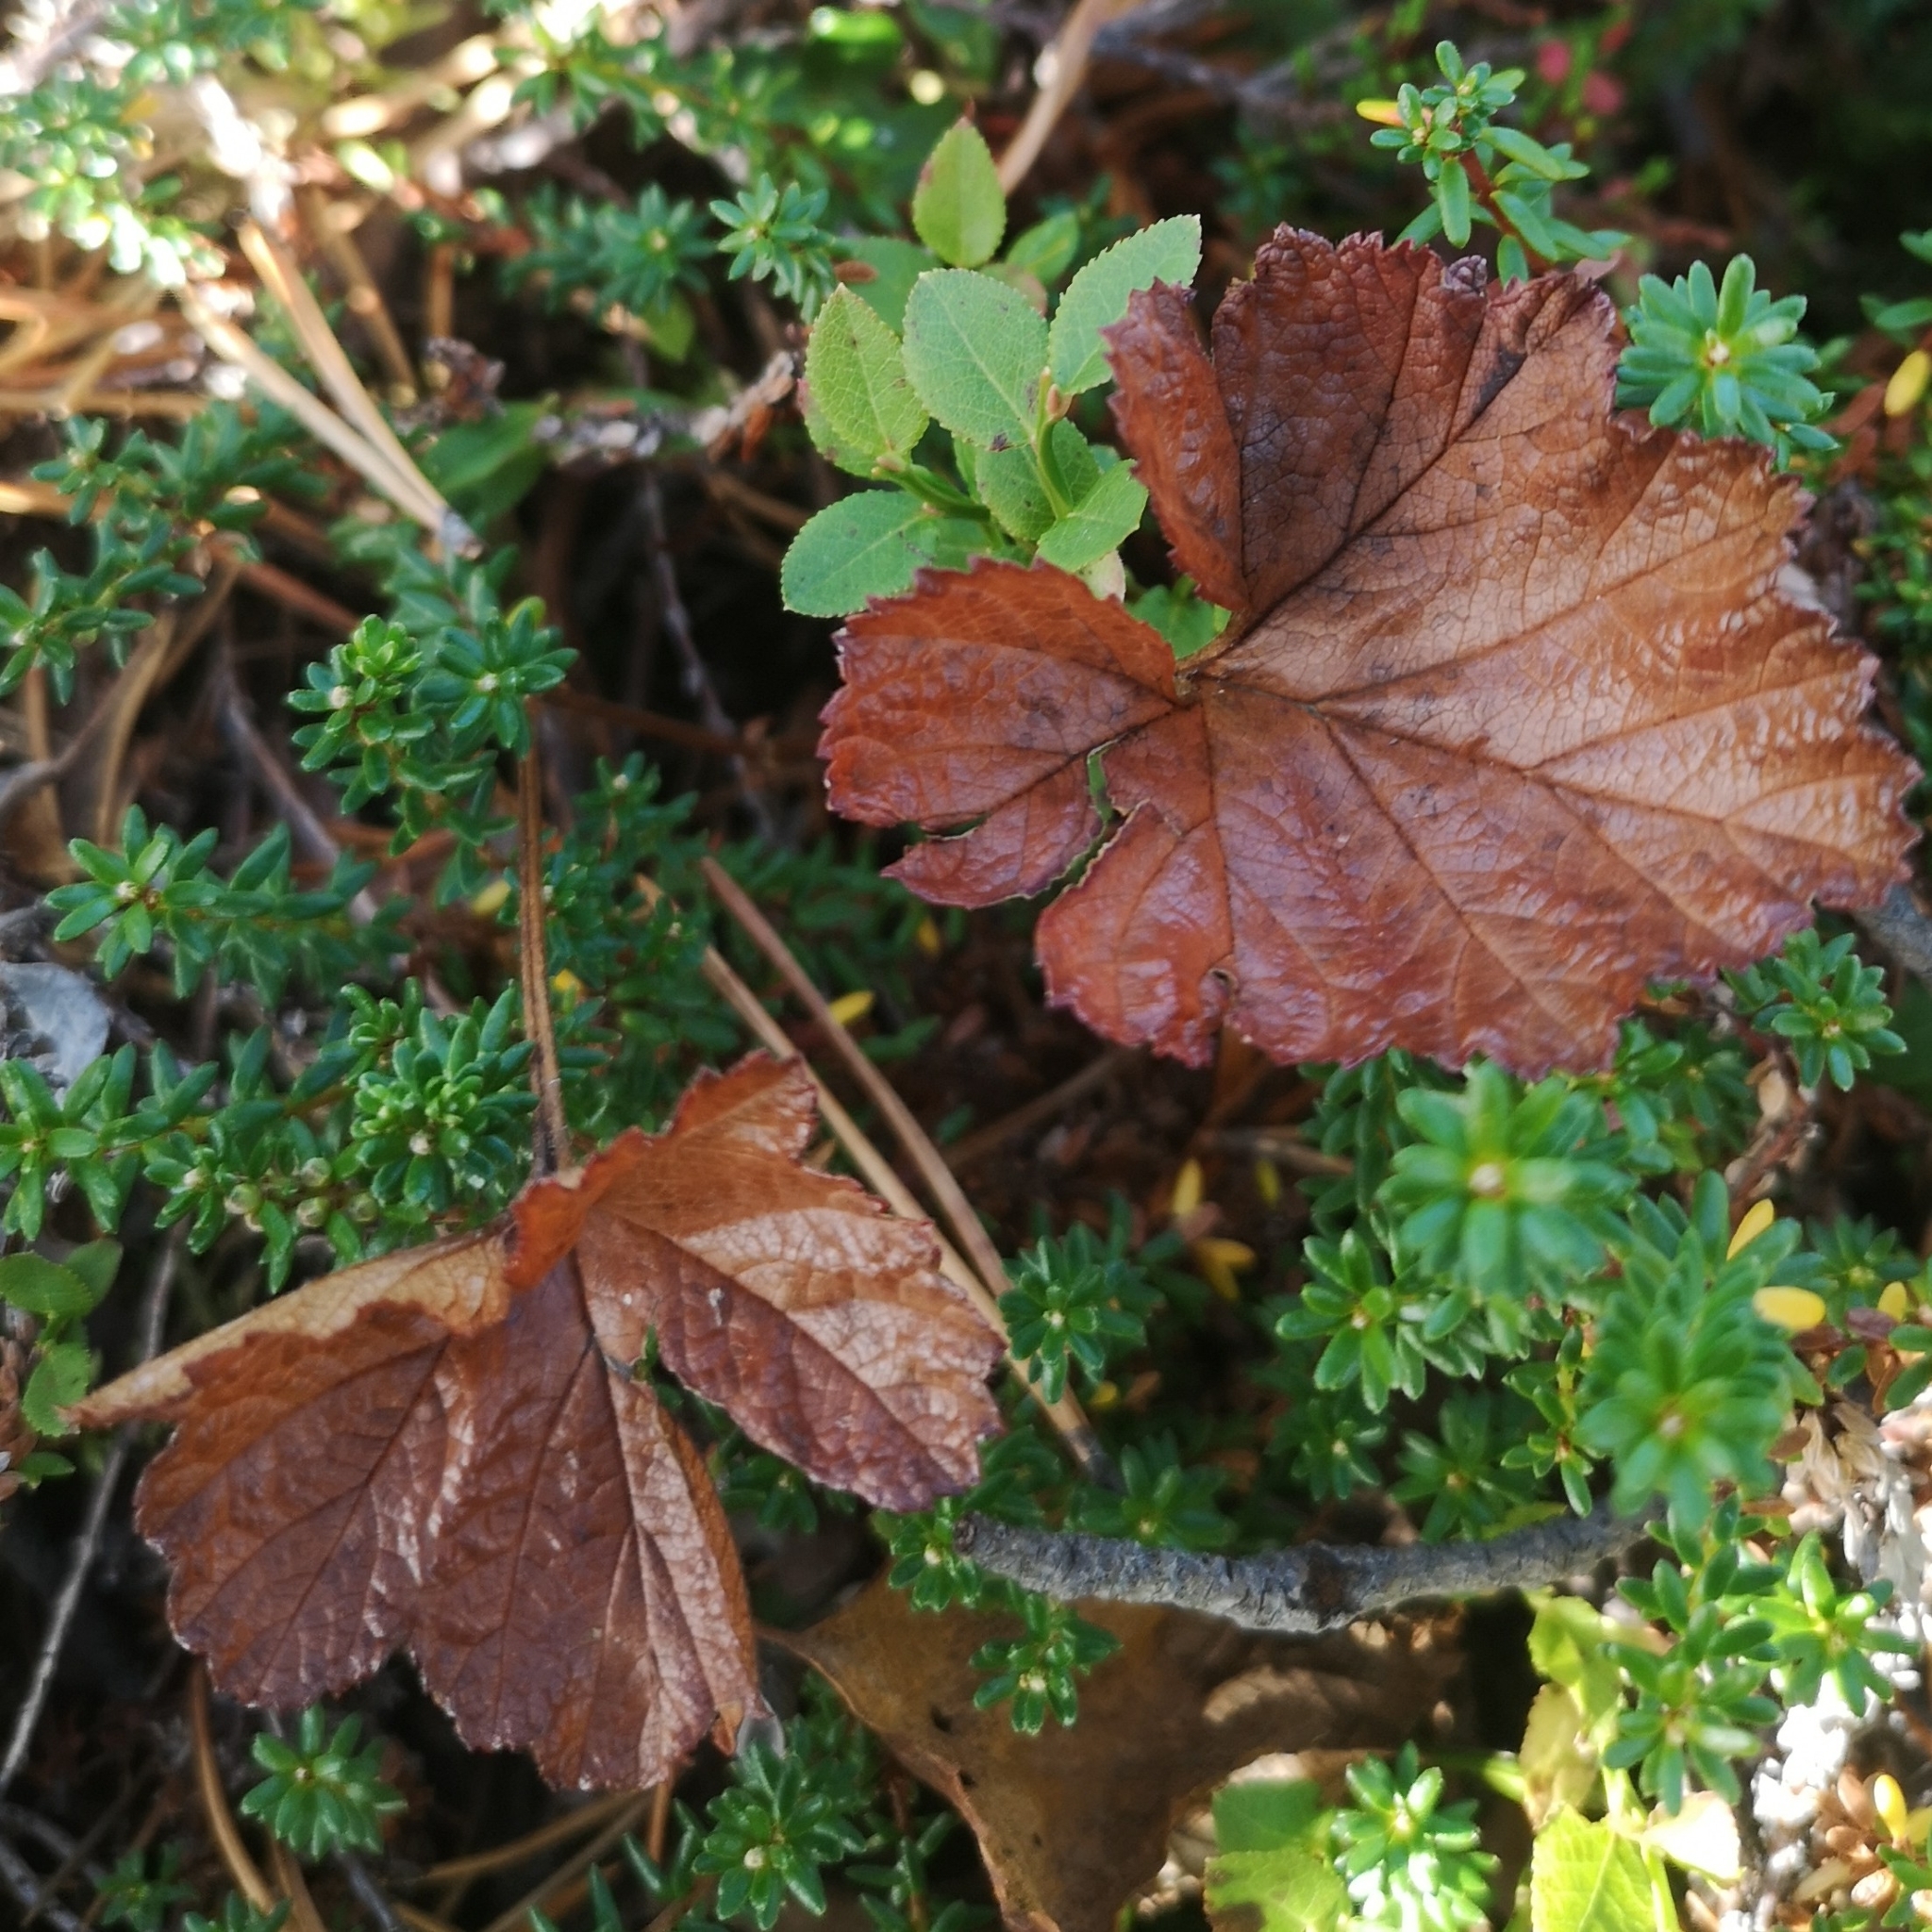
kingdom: Plantae
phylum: Tracheophyta
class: Magnoliopsida
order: Rosales
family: Rosaceae
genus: Rubus
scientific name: Rubus chamaemorus
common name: Cloudberry
